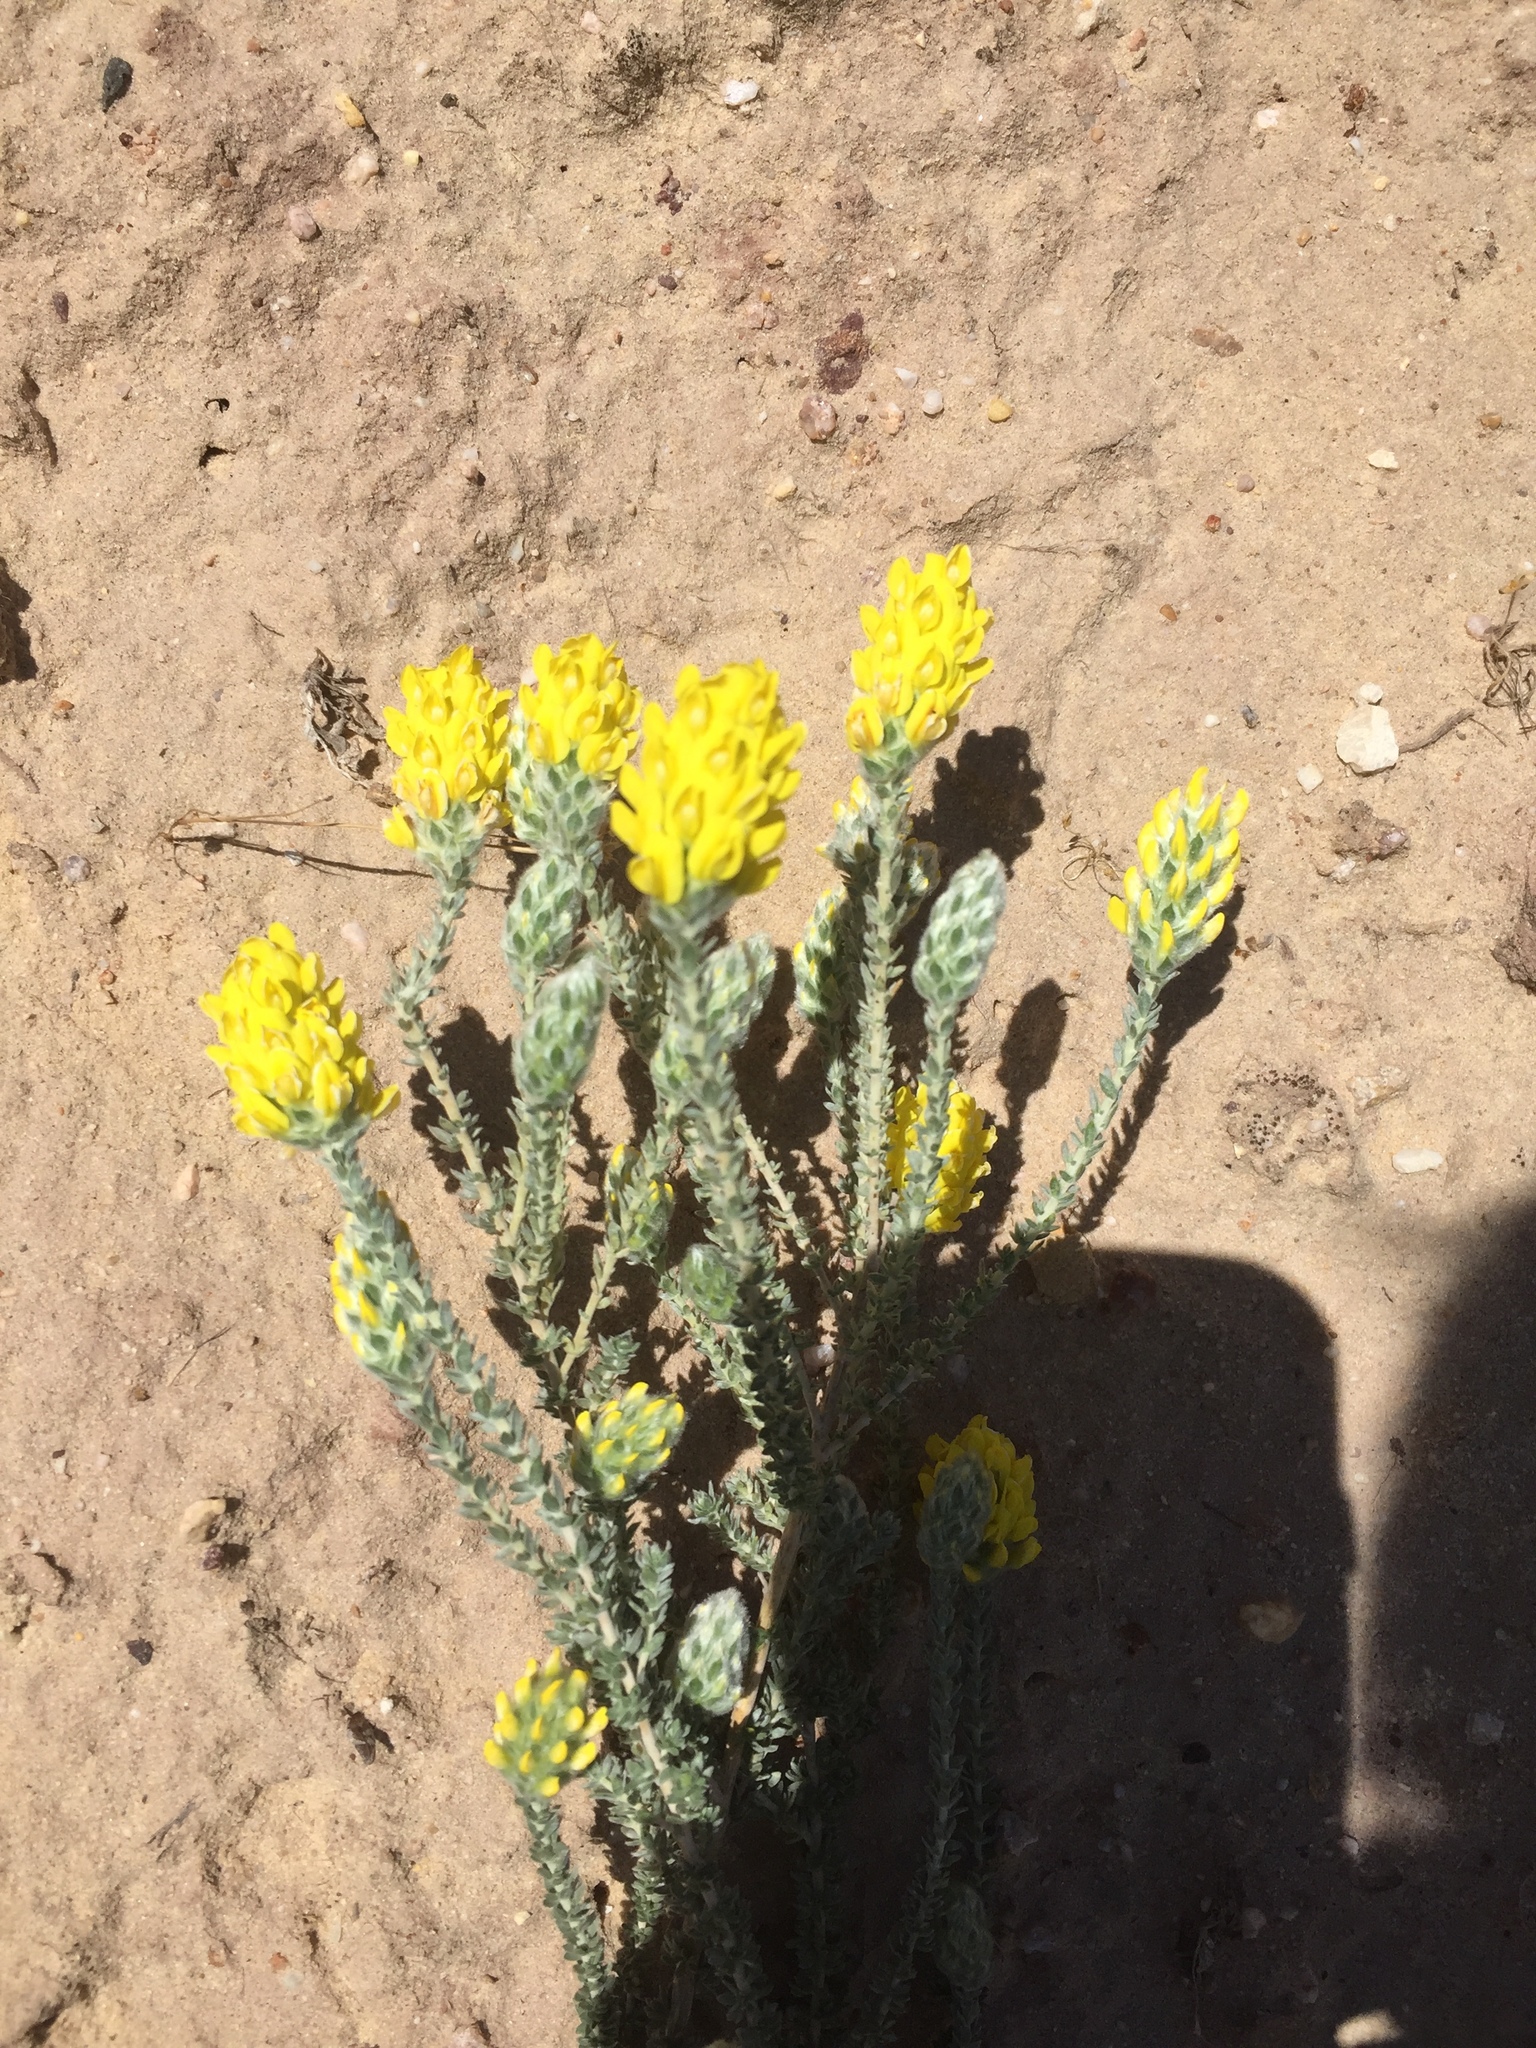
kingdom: Plantae
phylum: Tracheophyta
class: Magnoliopsida
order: Fabales
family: Fabaceae
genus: Aspalathus
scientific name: Aspalathus quinquefolia
